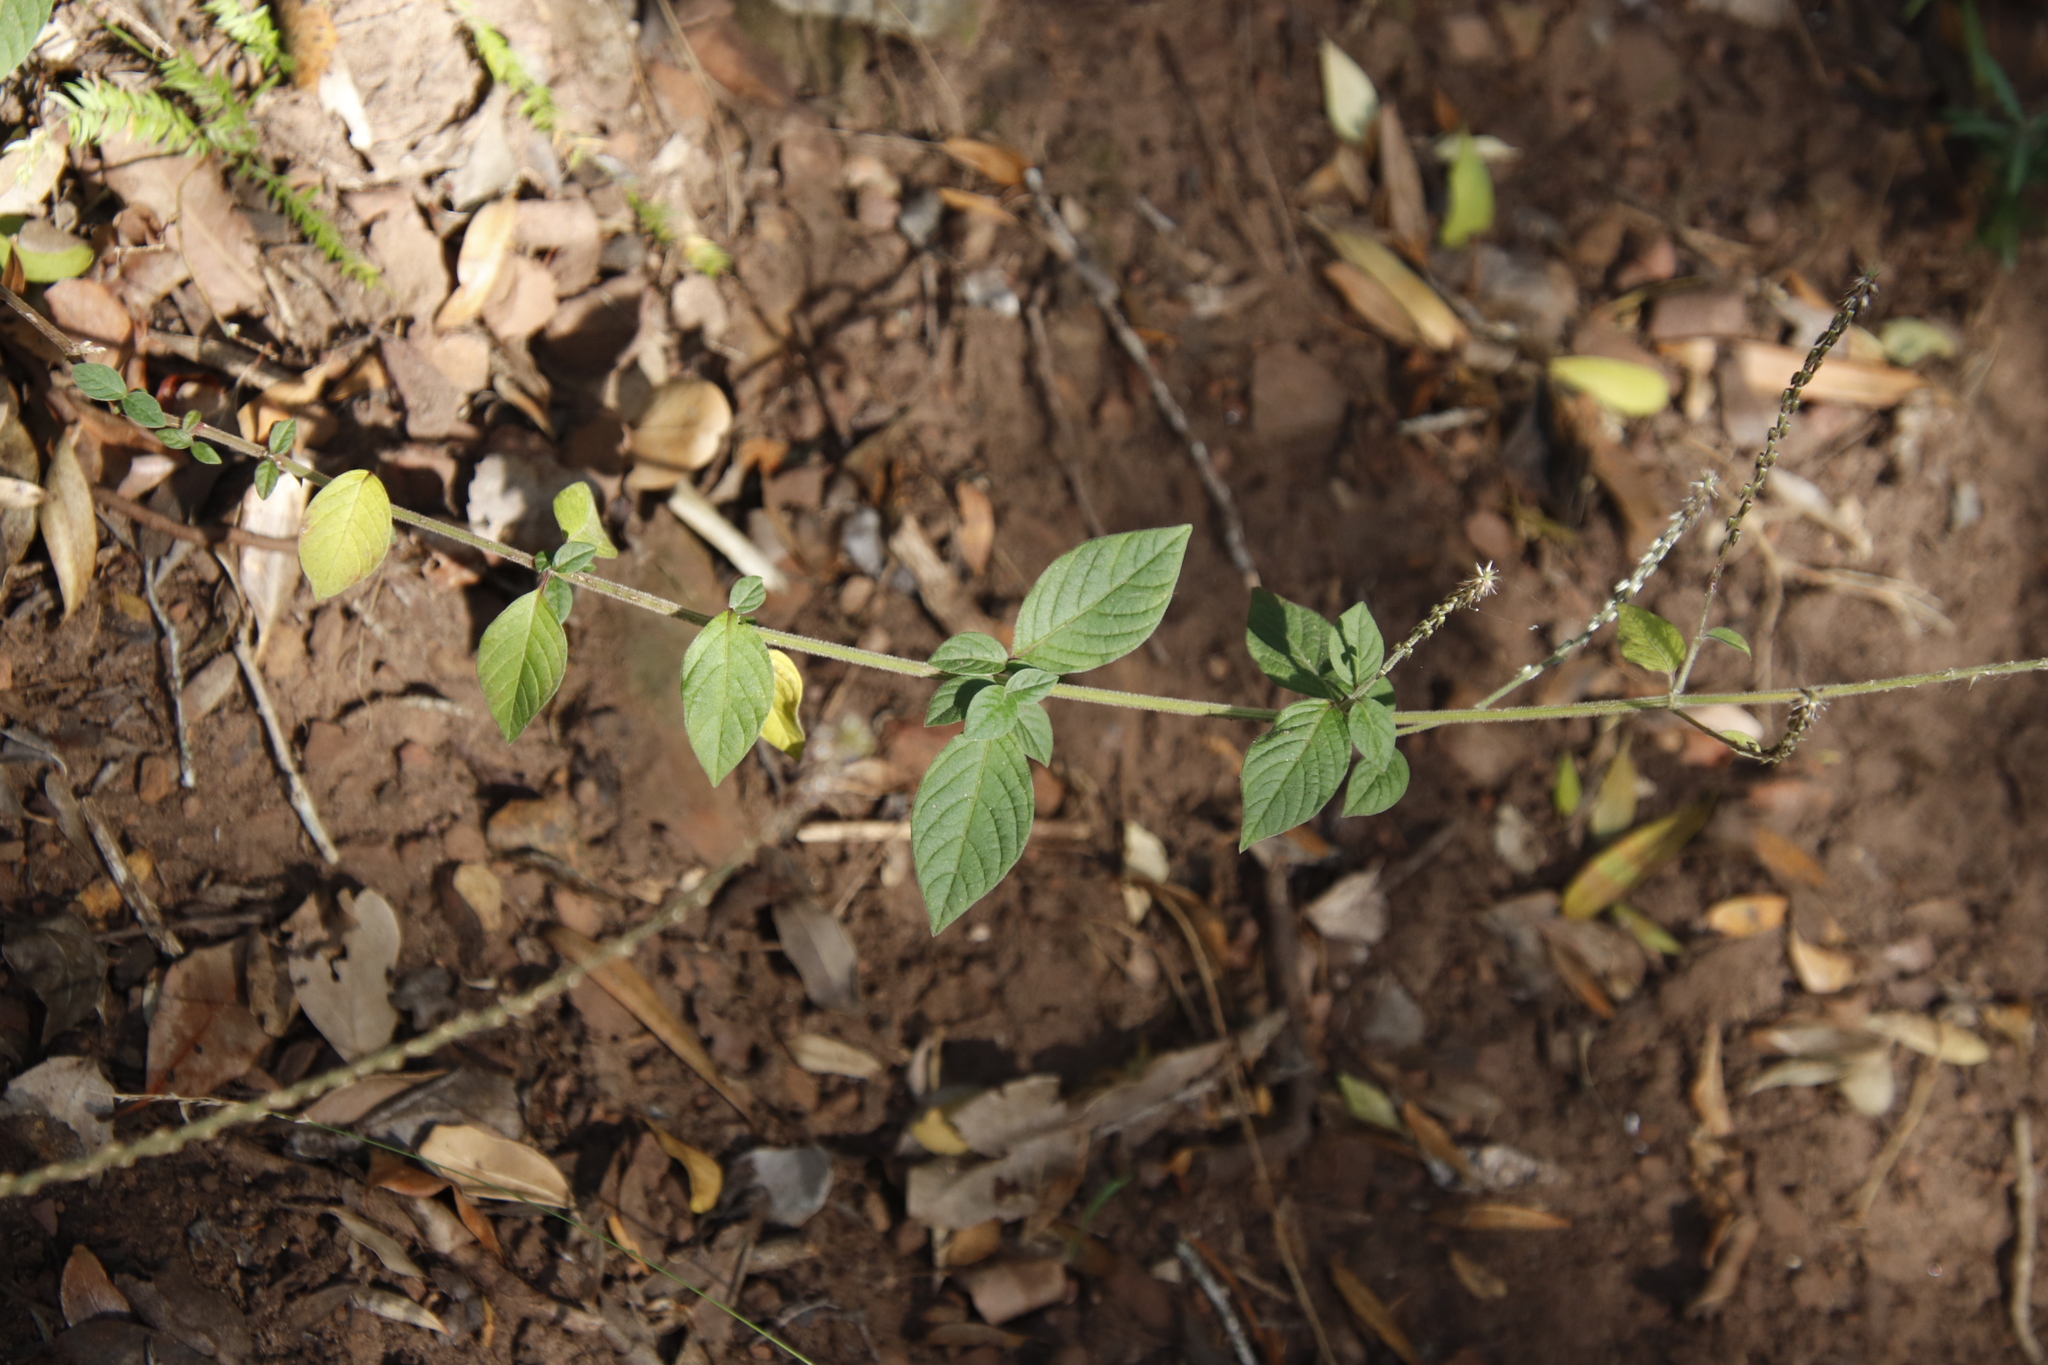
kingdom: Plantae
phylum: Tracheophyta
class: Magnoliopsida
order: Caryophyllales
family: Amaranthaceae
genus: Achyranthes
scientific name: Achyranthes aspera
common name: Devil's horsewhip
